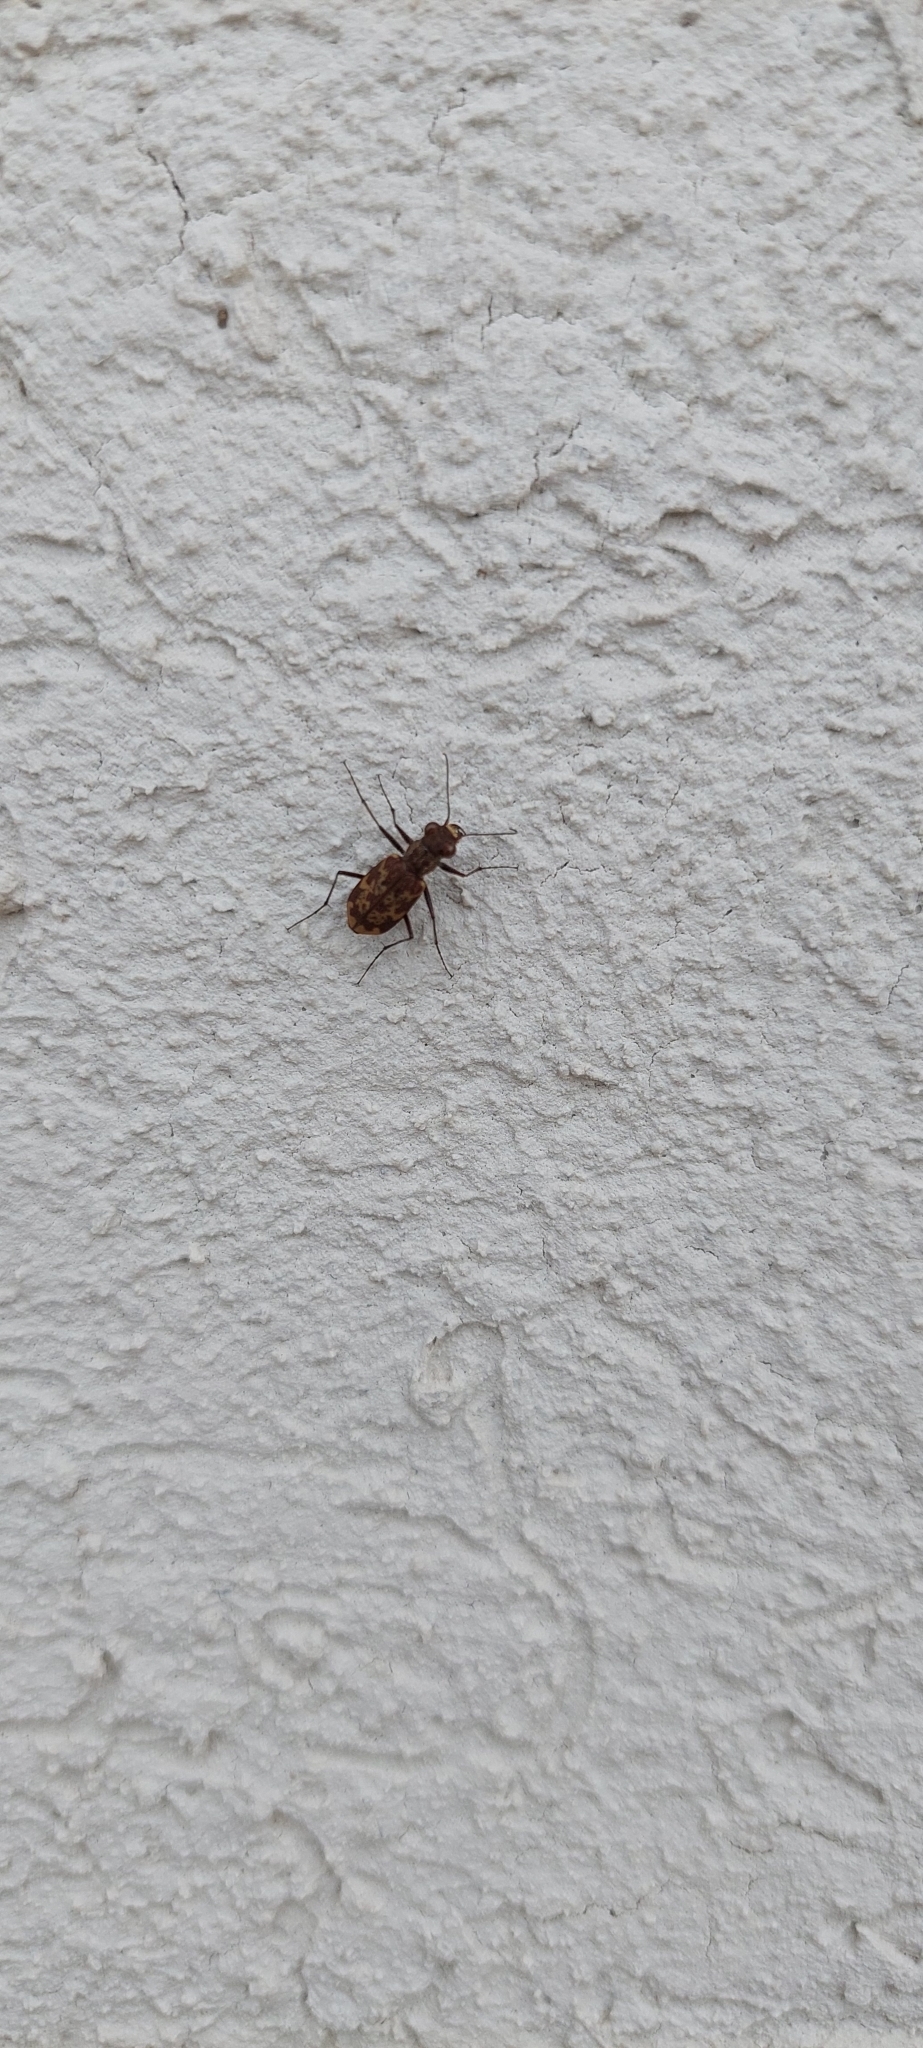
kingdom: Animalia
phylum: Arthropoda
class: Insecta
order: Coleoptera
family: Carabidae
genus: Cylindera
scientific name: Cylindera apiata
